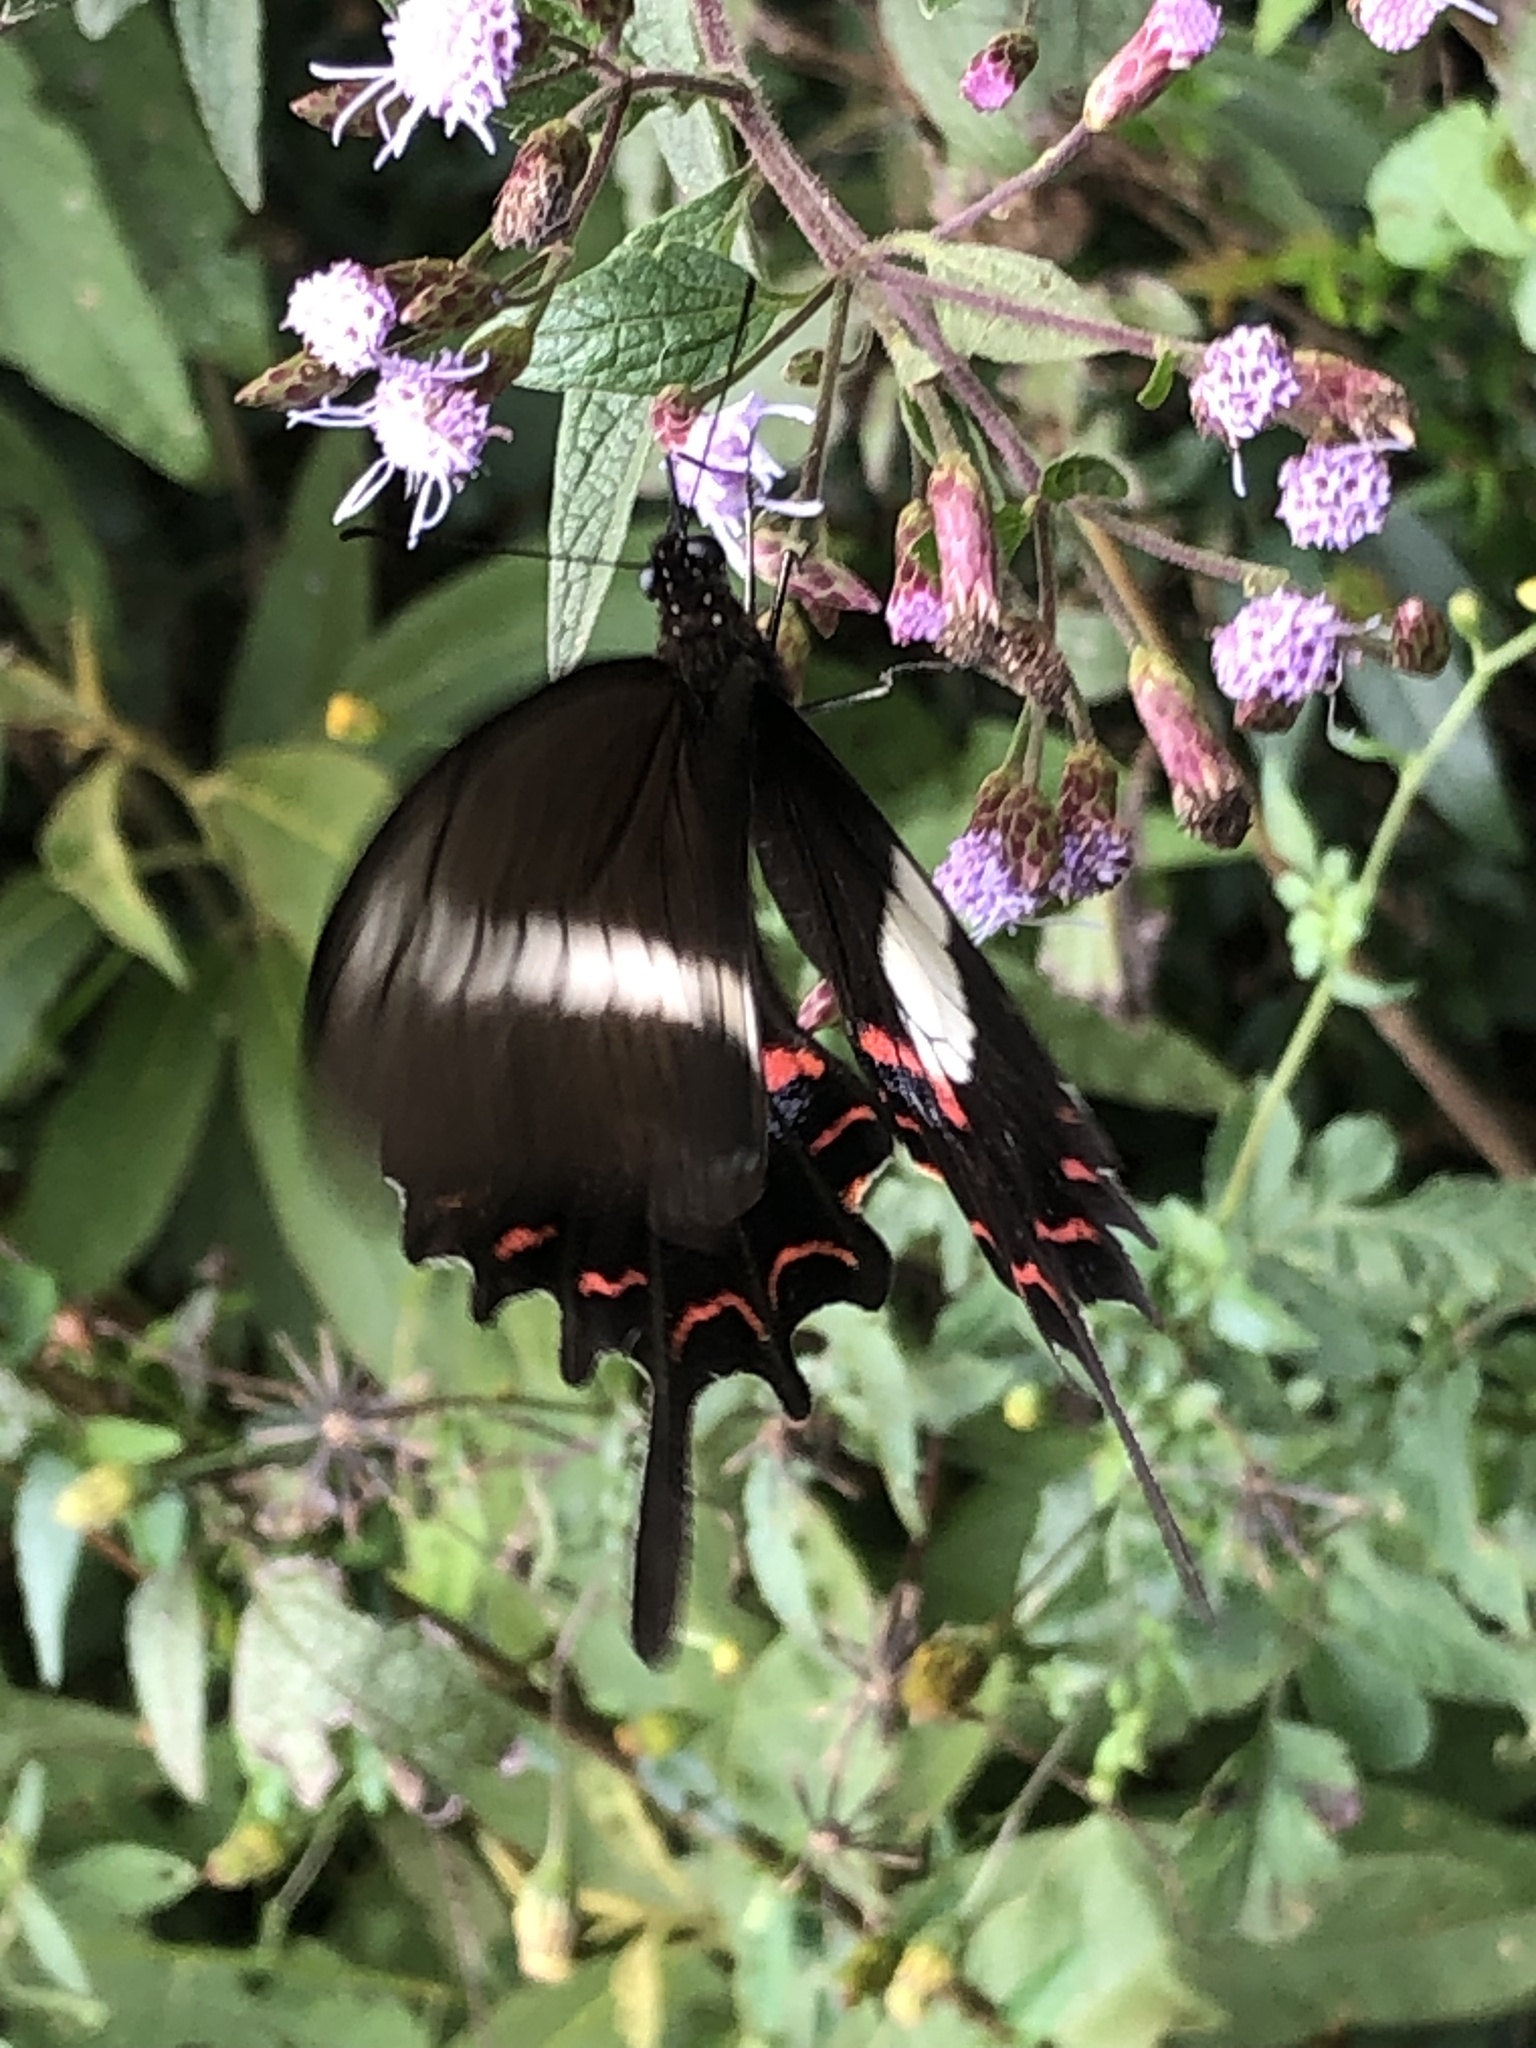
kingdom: Animalia
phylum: Arthropoda
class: Insecta
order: Lepidoptera
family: Papilionidae
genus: Heraclides
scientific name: Heraclides hectorides
